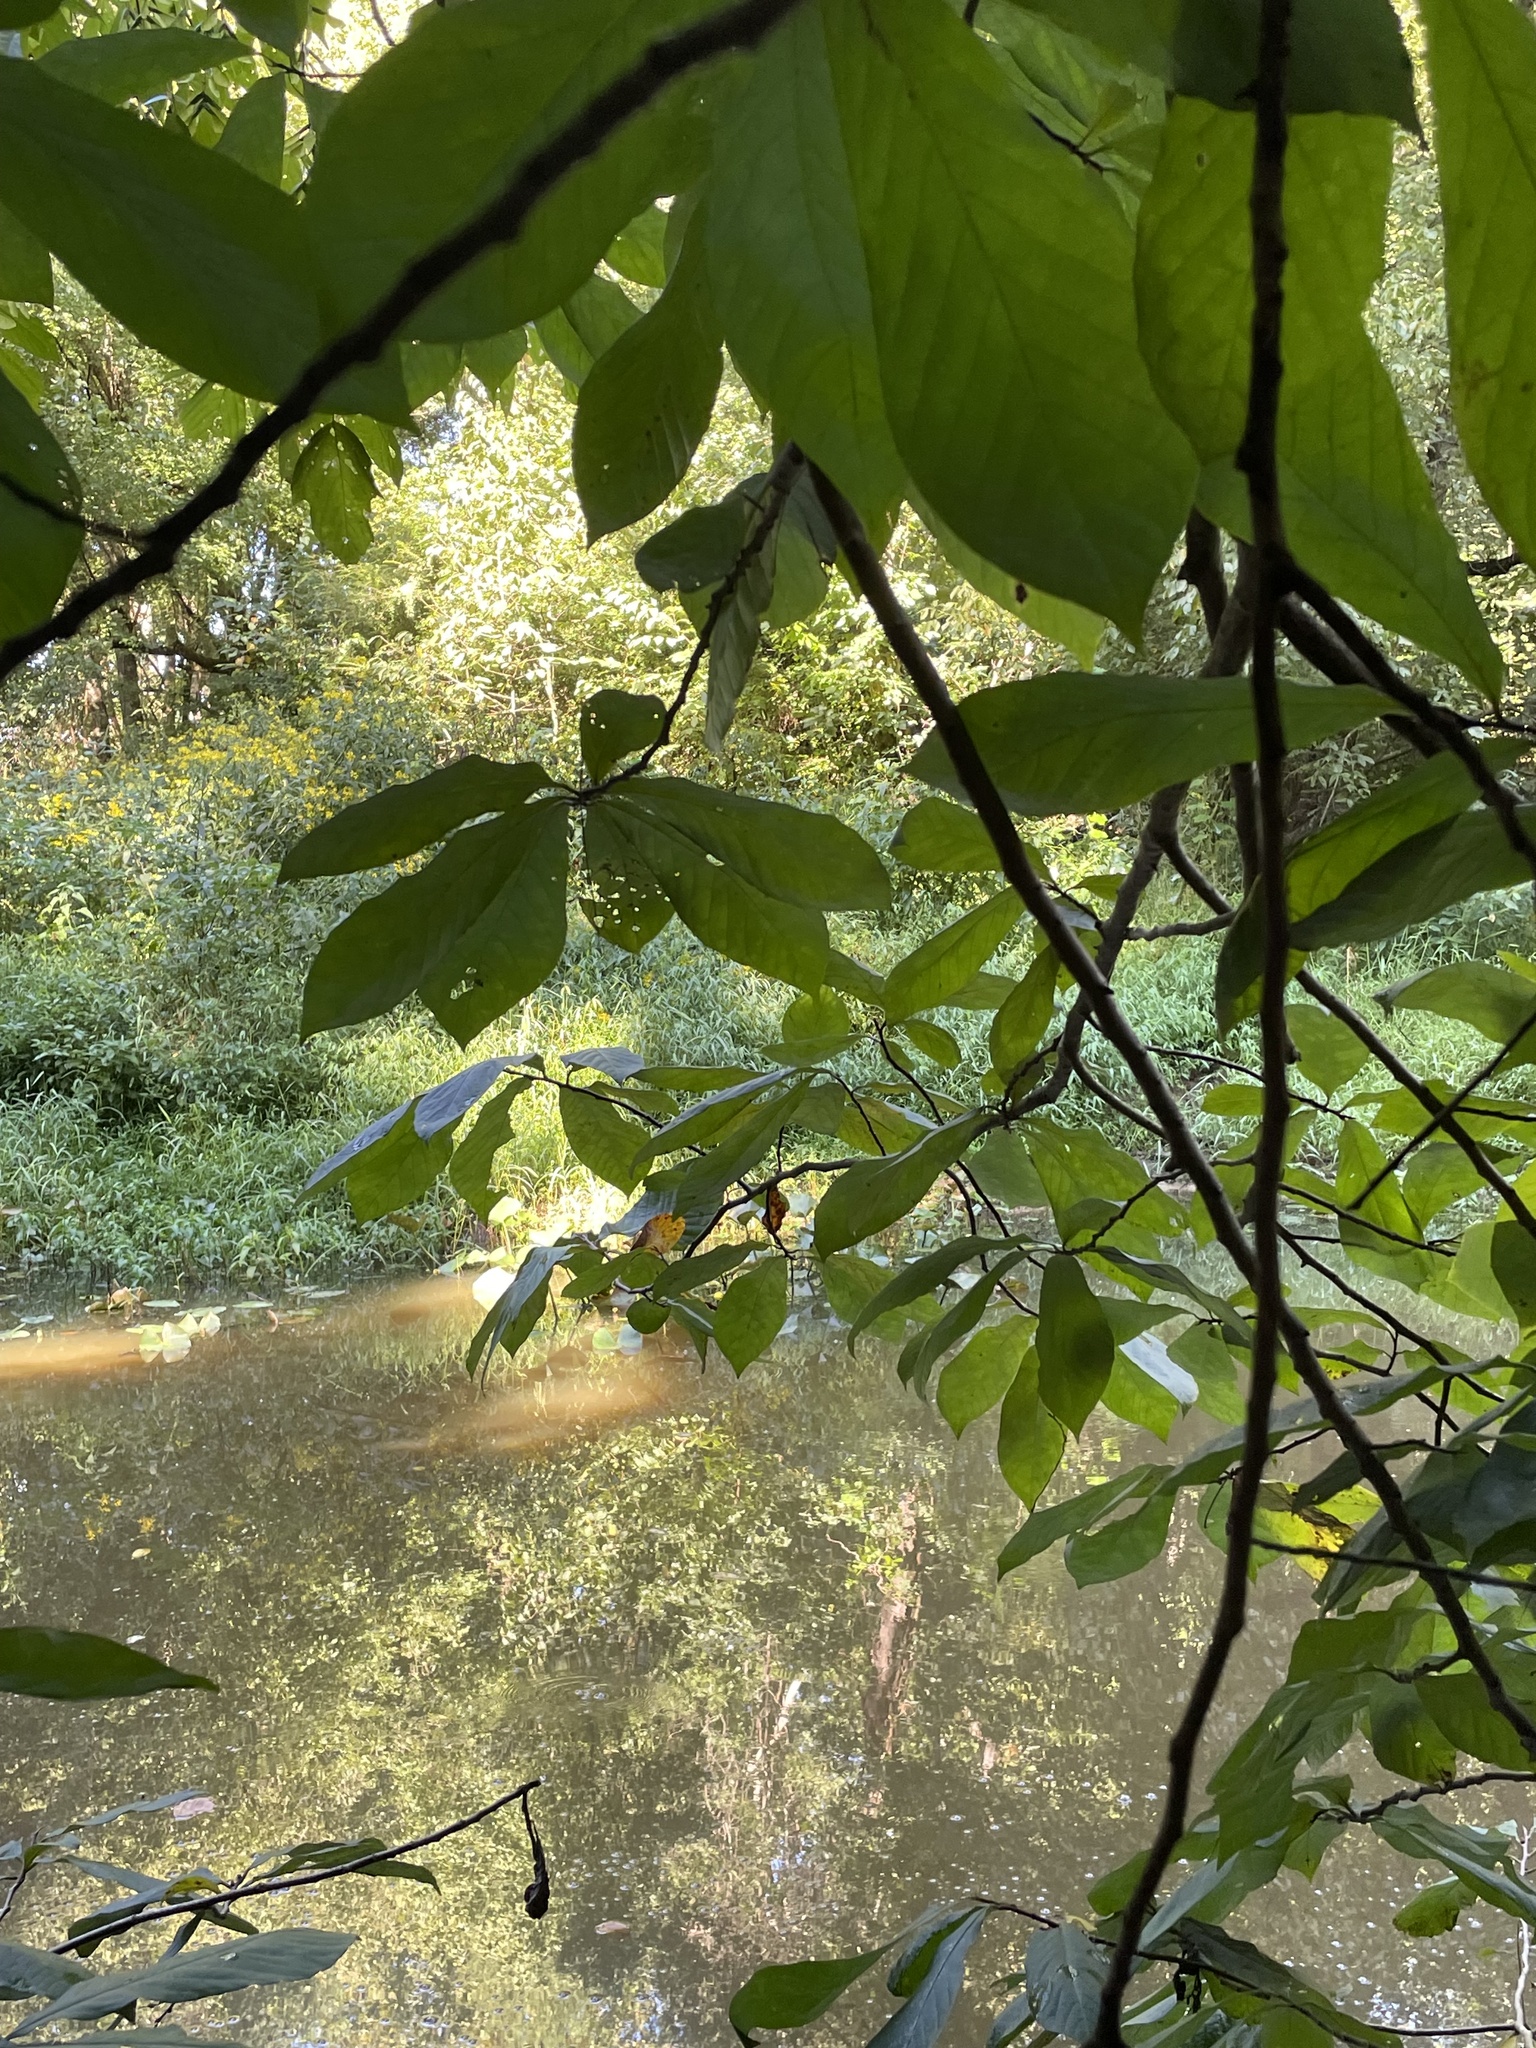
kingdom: Plantae
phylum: Tracheophyta
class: Magnoliopsida
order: Magnoliales
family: Annonaceae
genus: Asimina
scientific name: Asimina triloba
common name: Dog-banana
